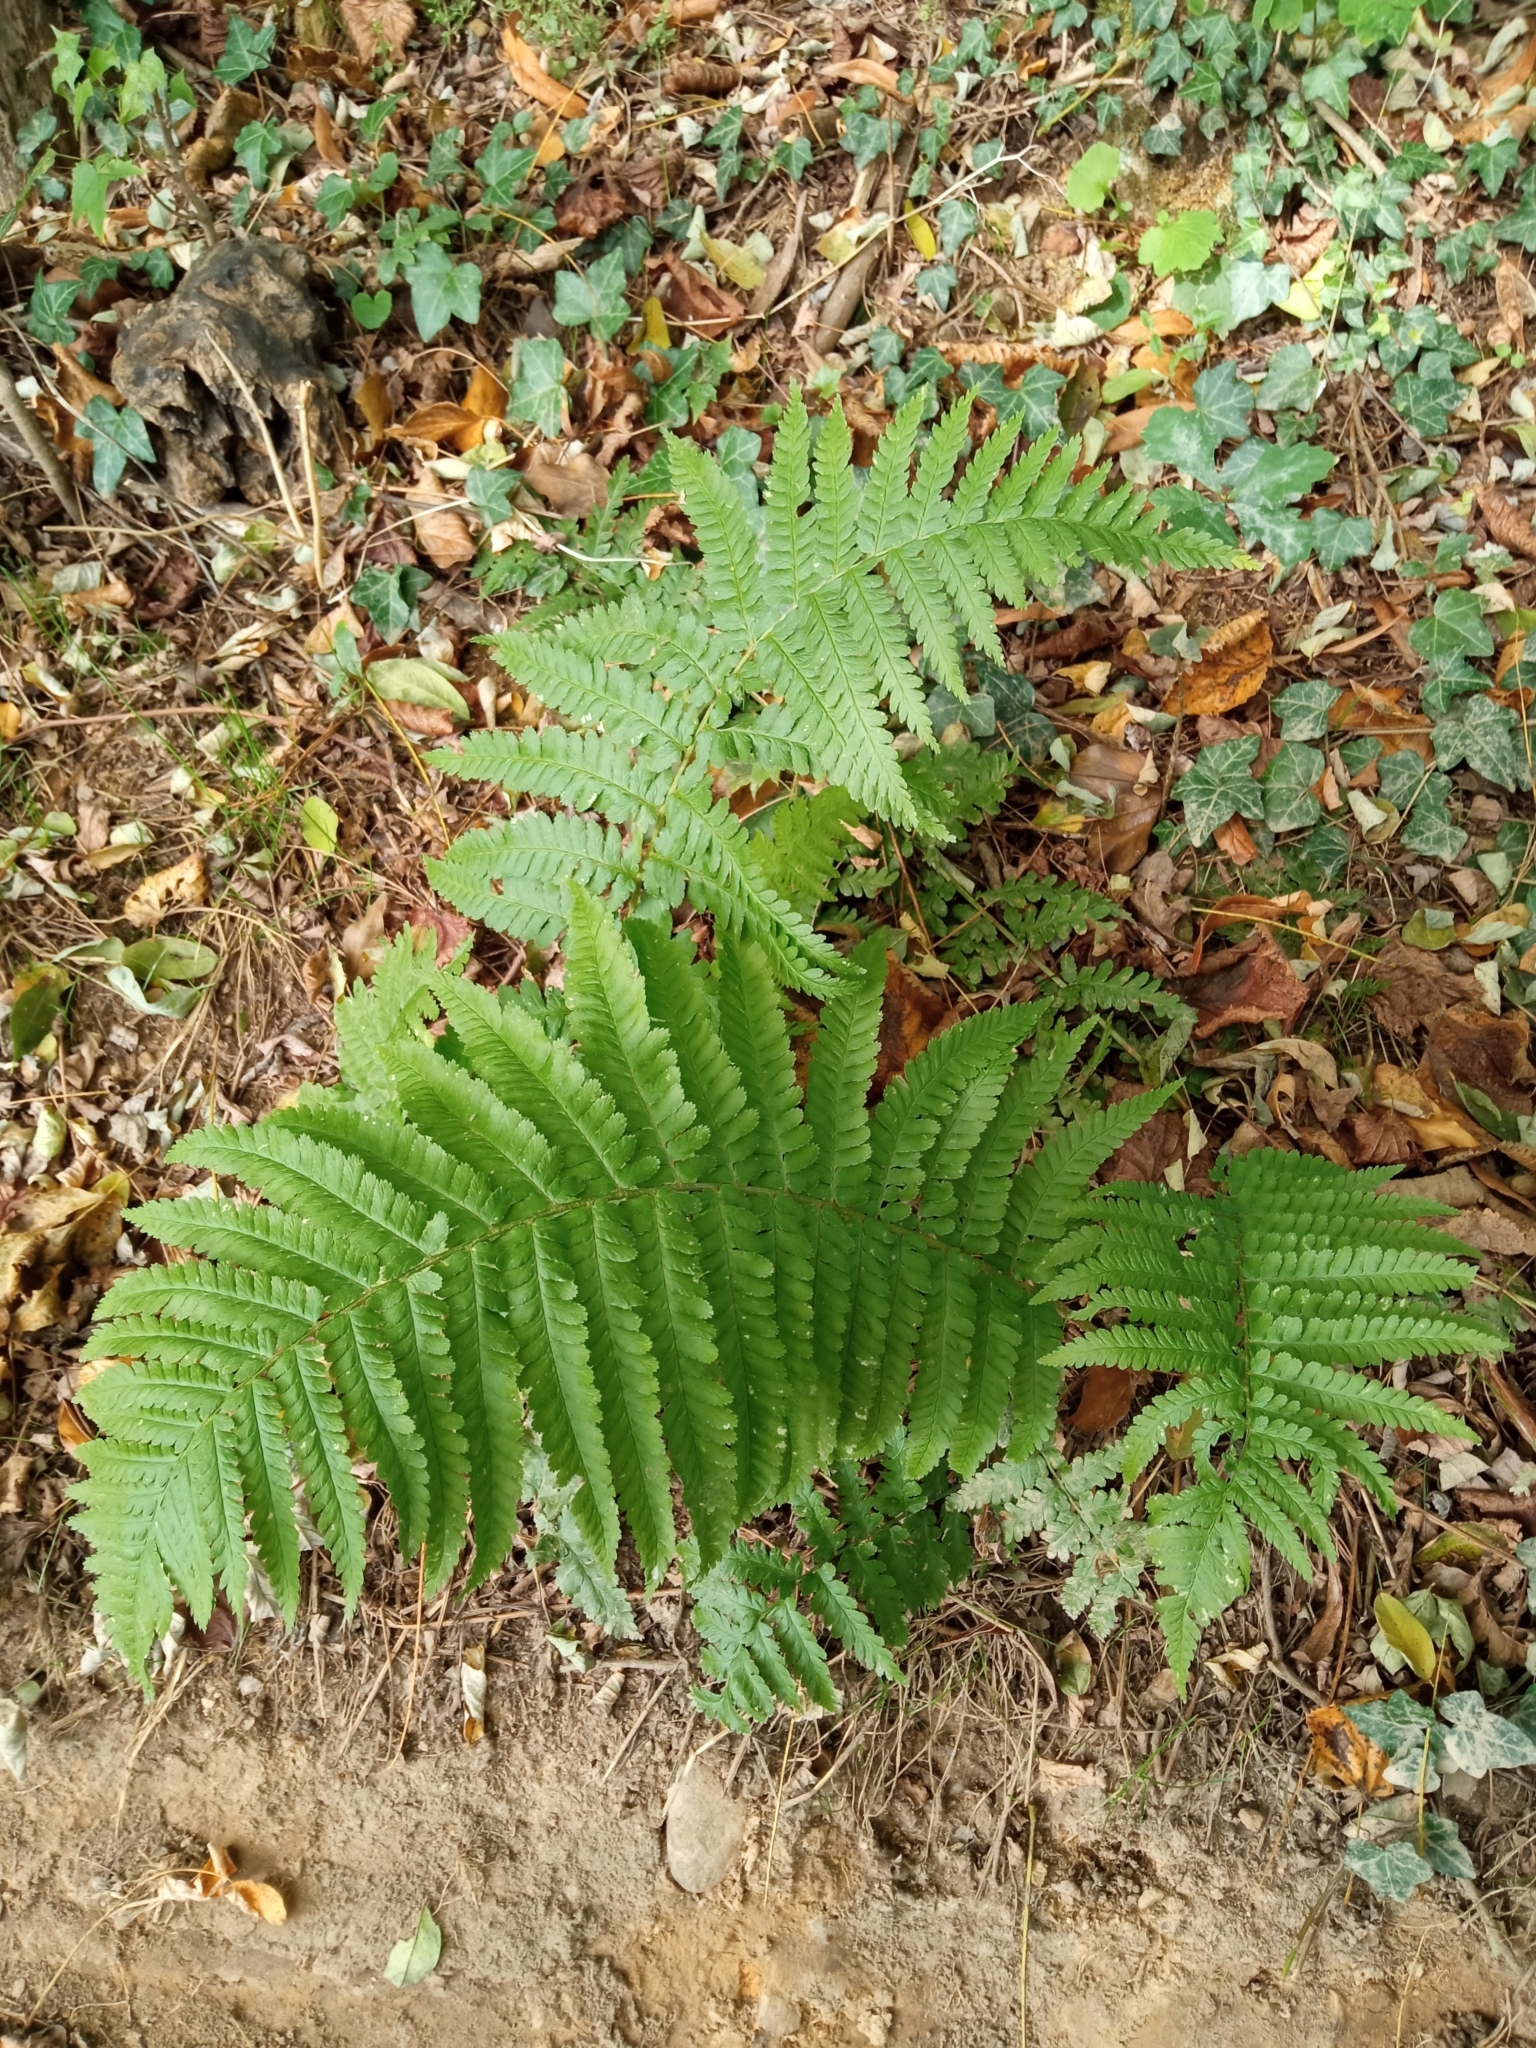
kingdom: Plantae
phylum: Tracheophyta
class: Polypodiopsida
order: Polypodiales
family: Dryopteridaceae
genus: Dryopteris
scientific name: Dryopteris filix-mas
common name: Male fern
